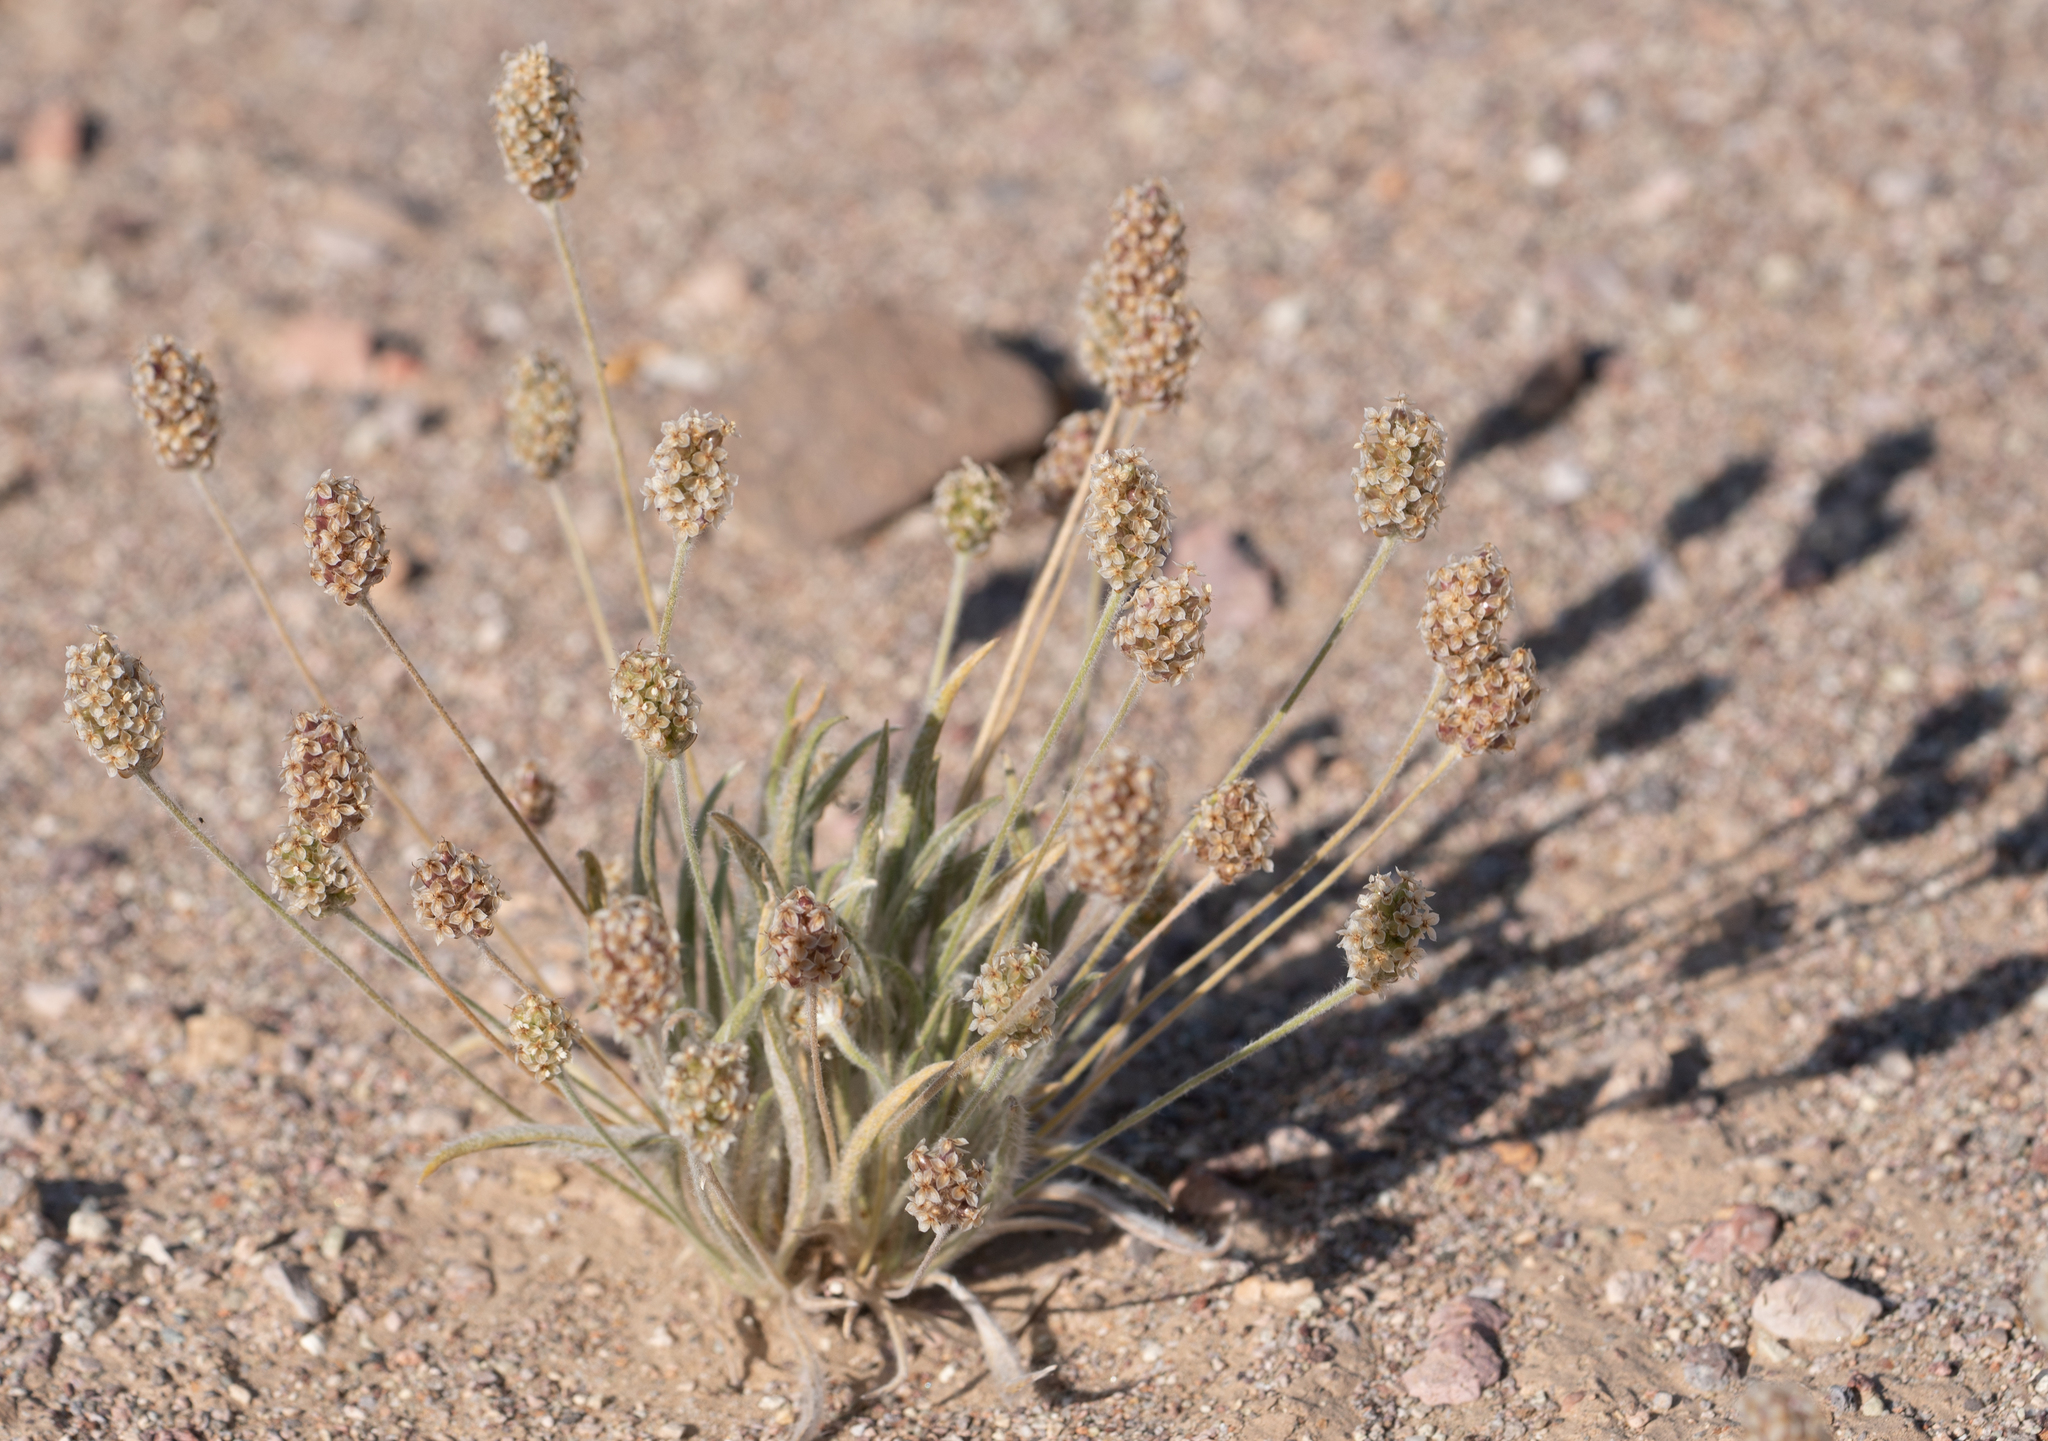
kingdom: Plantae
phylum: Tracheophyta
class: Magnoliopsida
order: Lamiales
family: Plantaginaceae
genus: Plantago
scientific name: Plantago ovata
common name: Blond plantain
